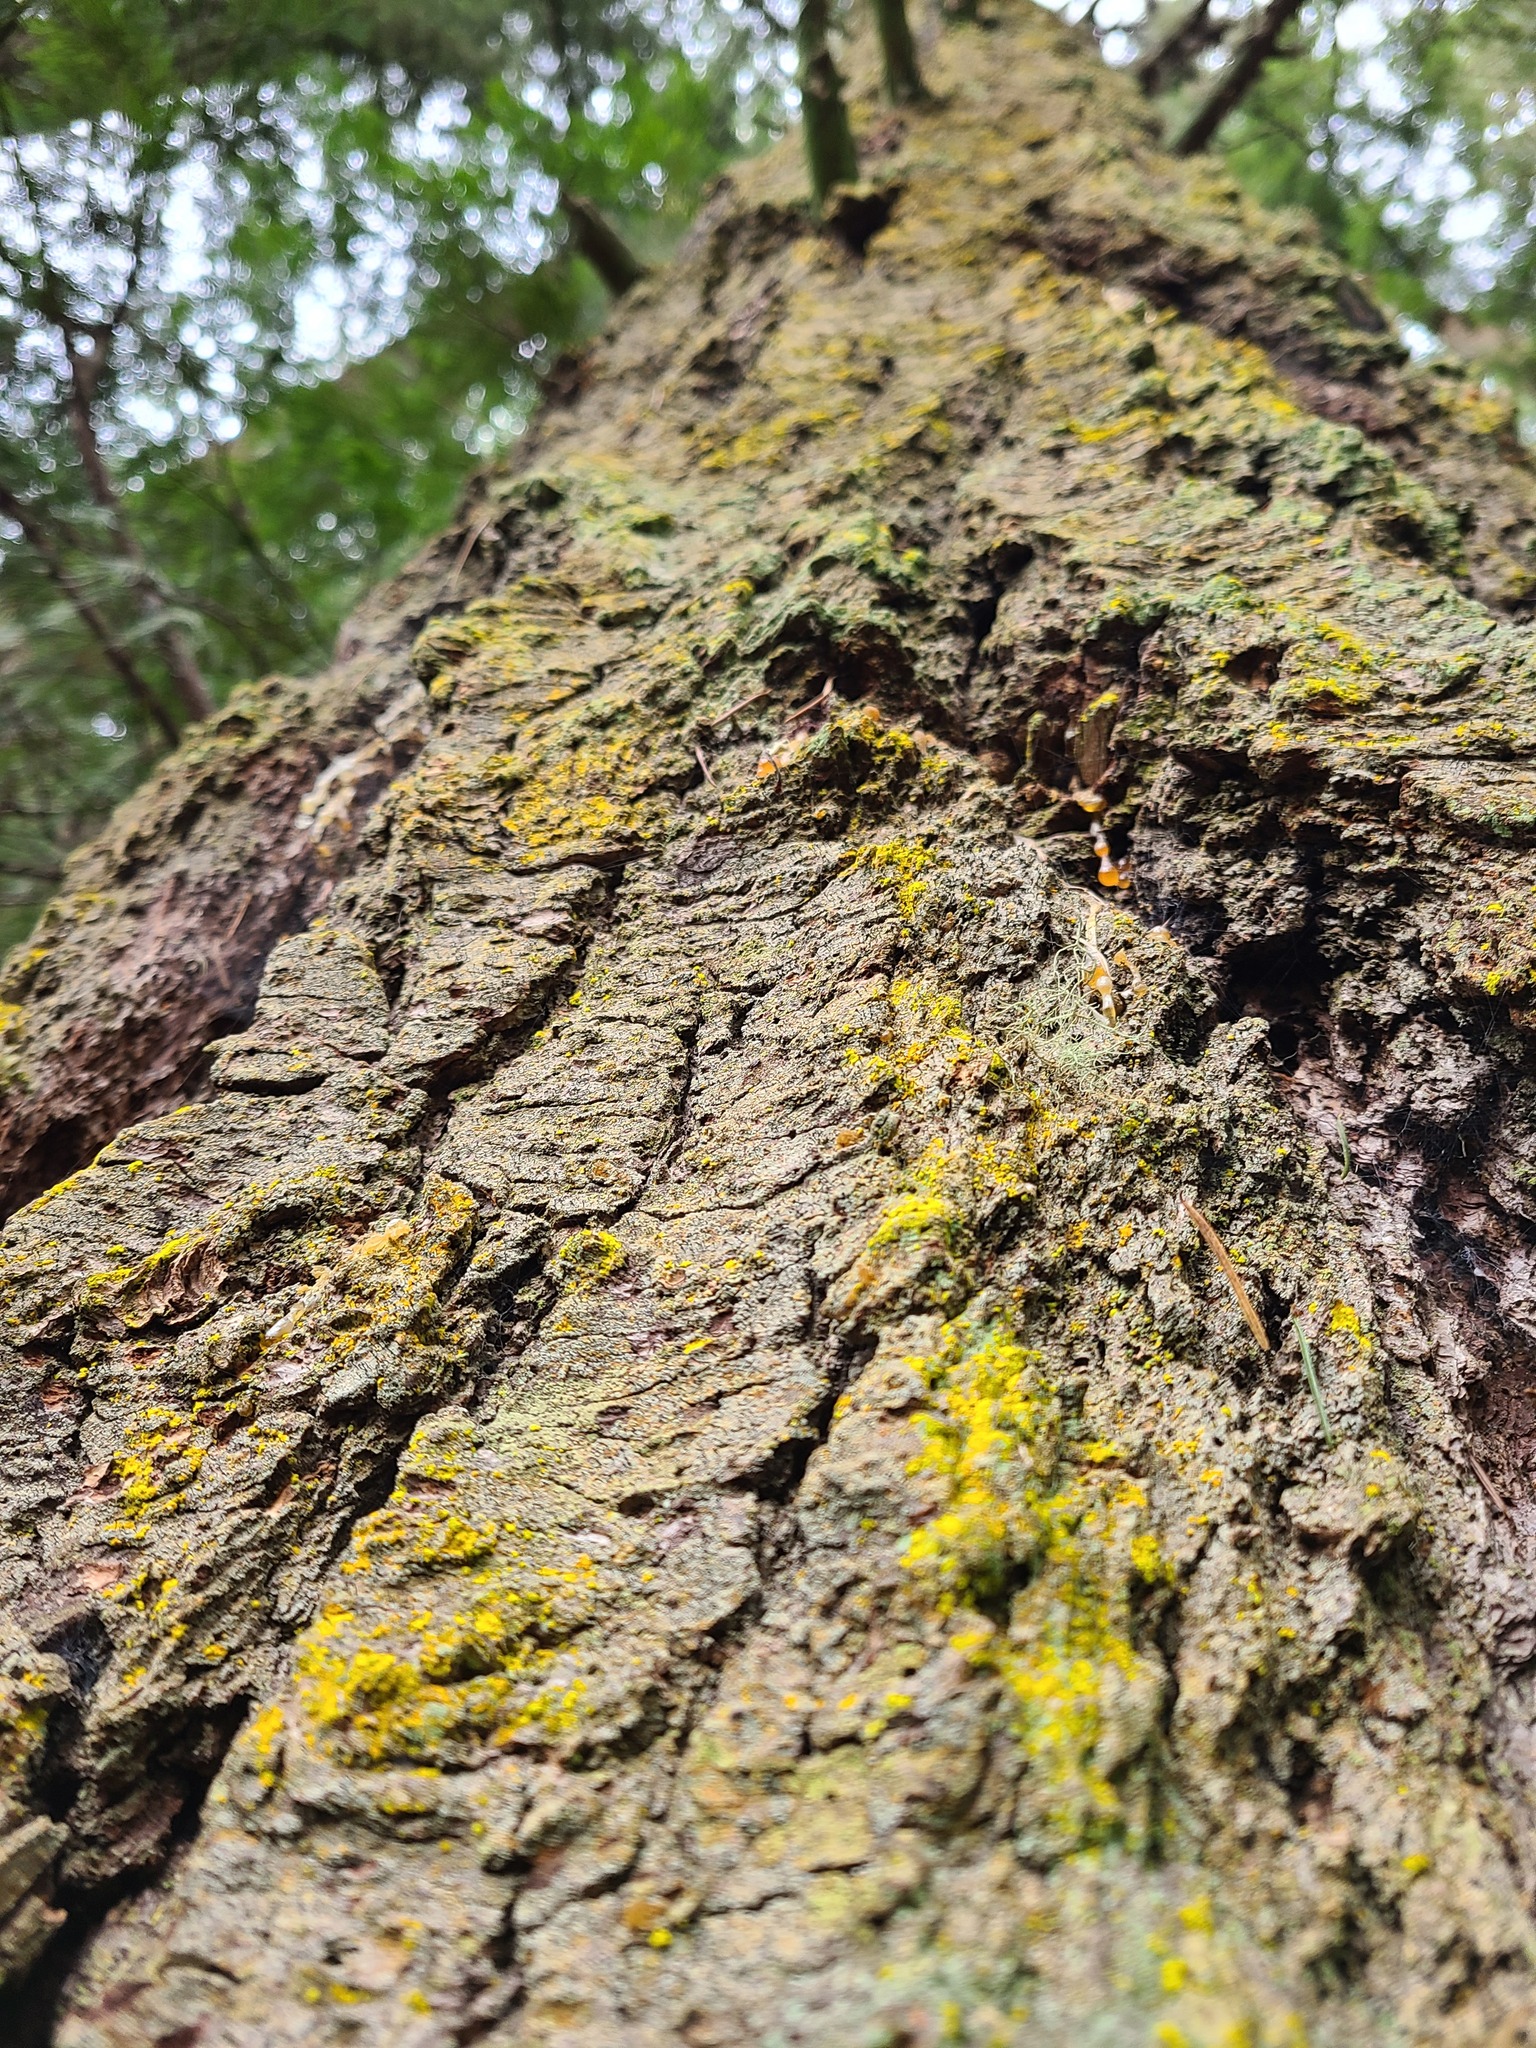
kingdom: Fungi
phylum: Ascomycota
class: Arthoniomycetes
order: Arthoniales
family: Chrysotrichaceae
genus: Chrysothrix
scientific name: Chrysothrix candelaris
